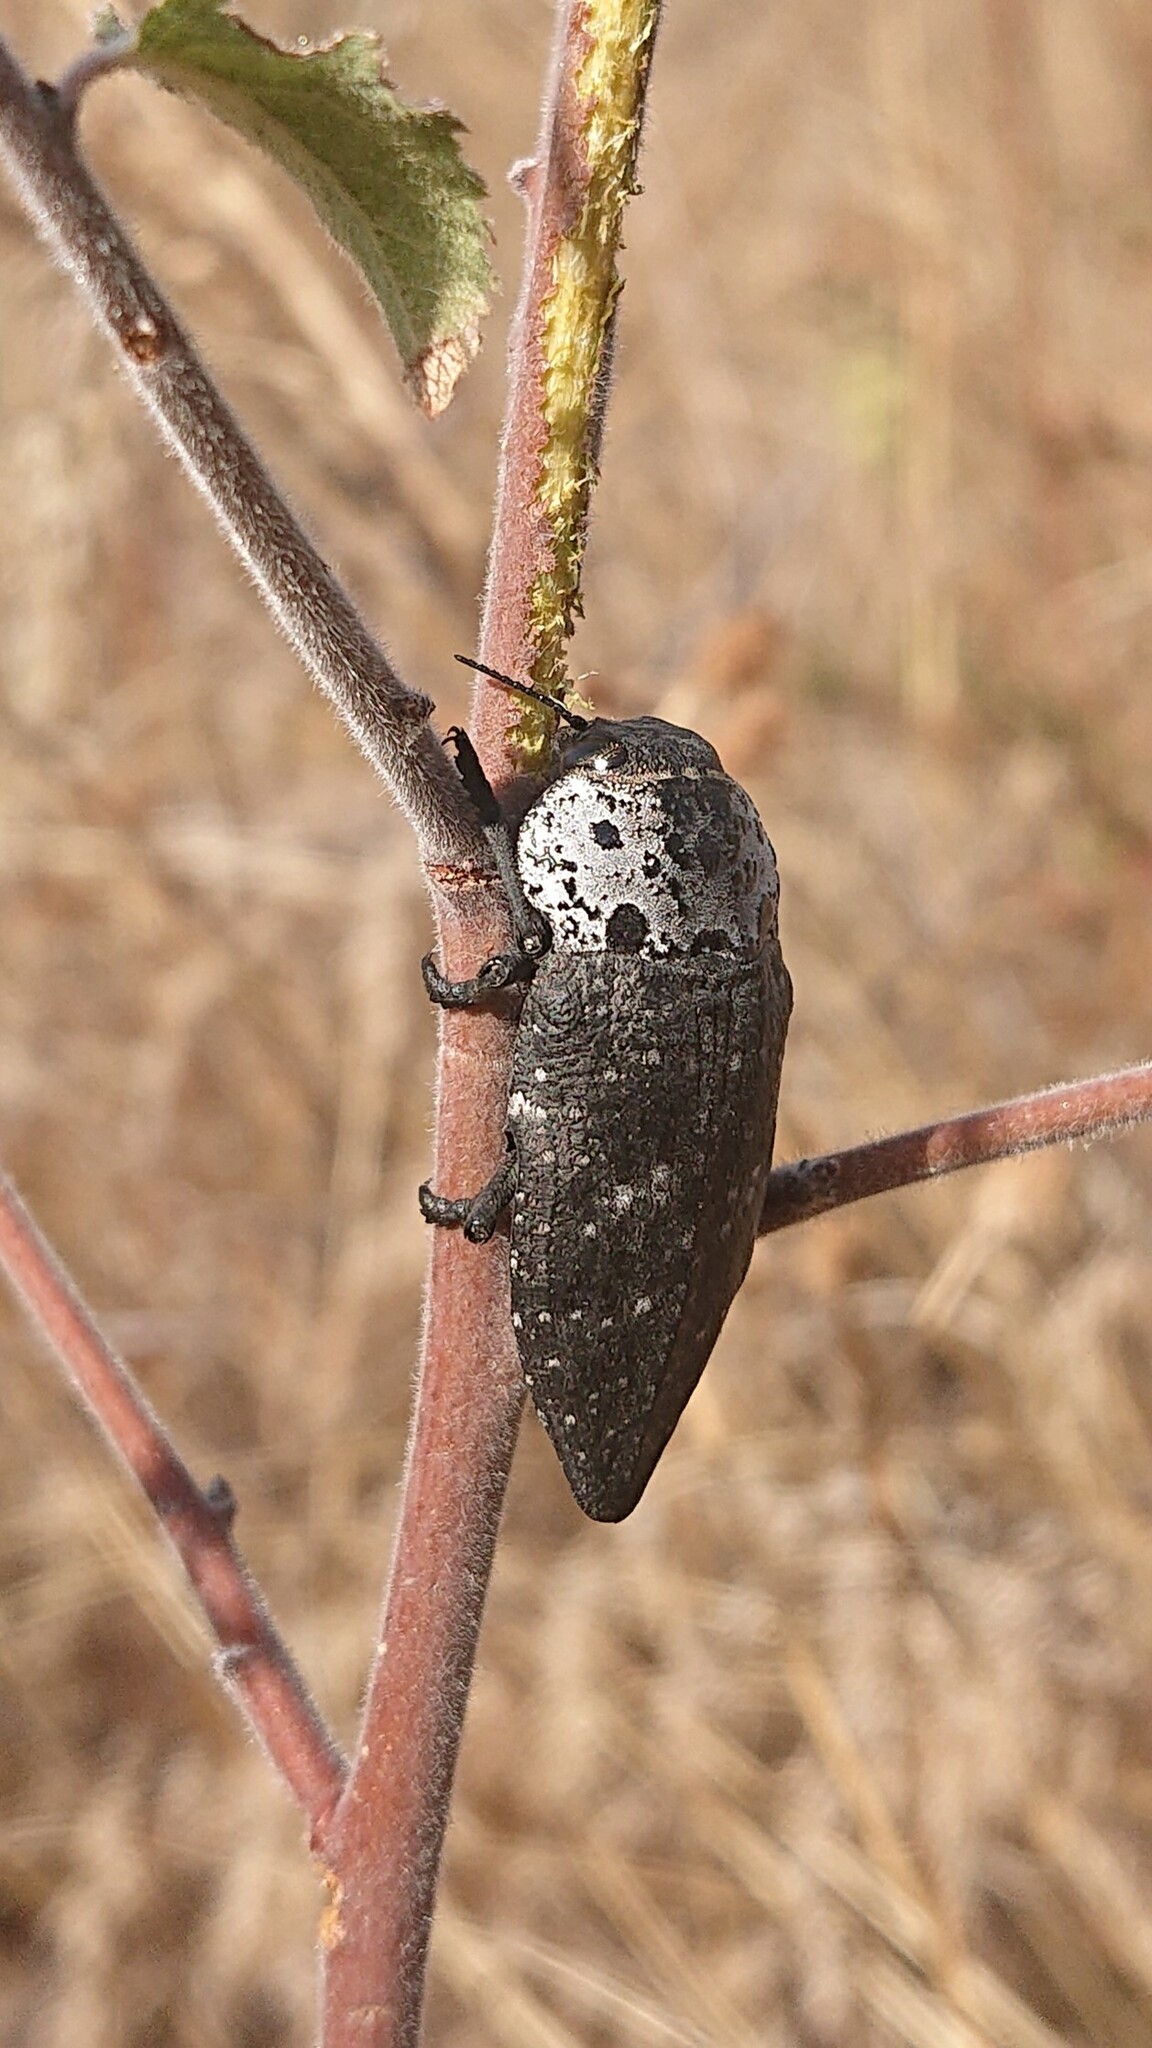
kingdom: Animalia
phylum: Arthropoda
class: Insecta
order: Coleoptera
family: Buprestidae
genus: Capnodis
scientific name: Capnodis tenebrionis
